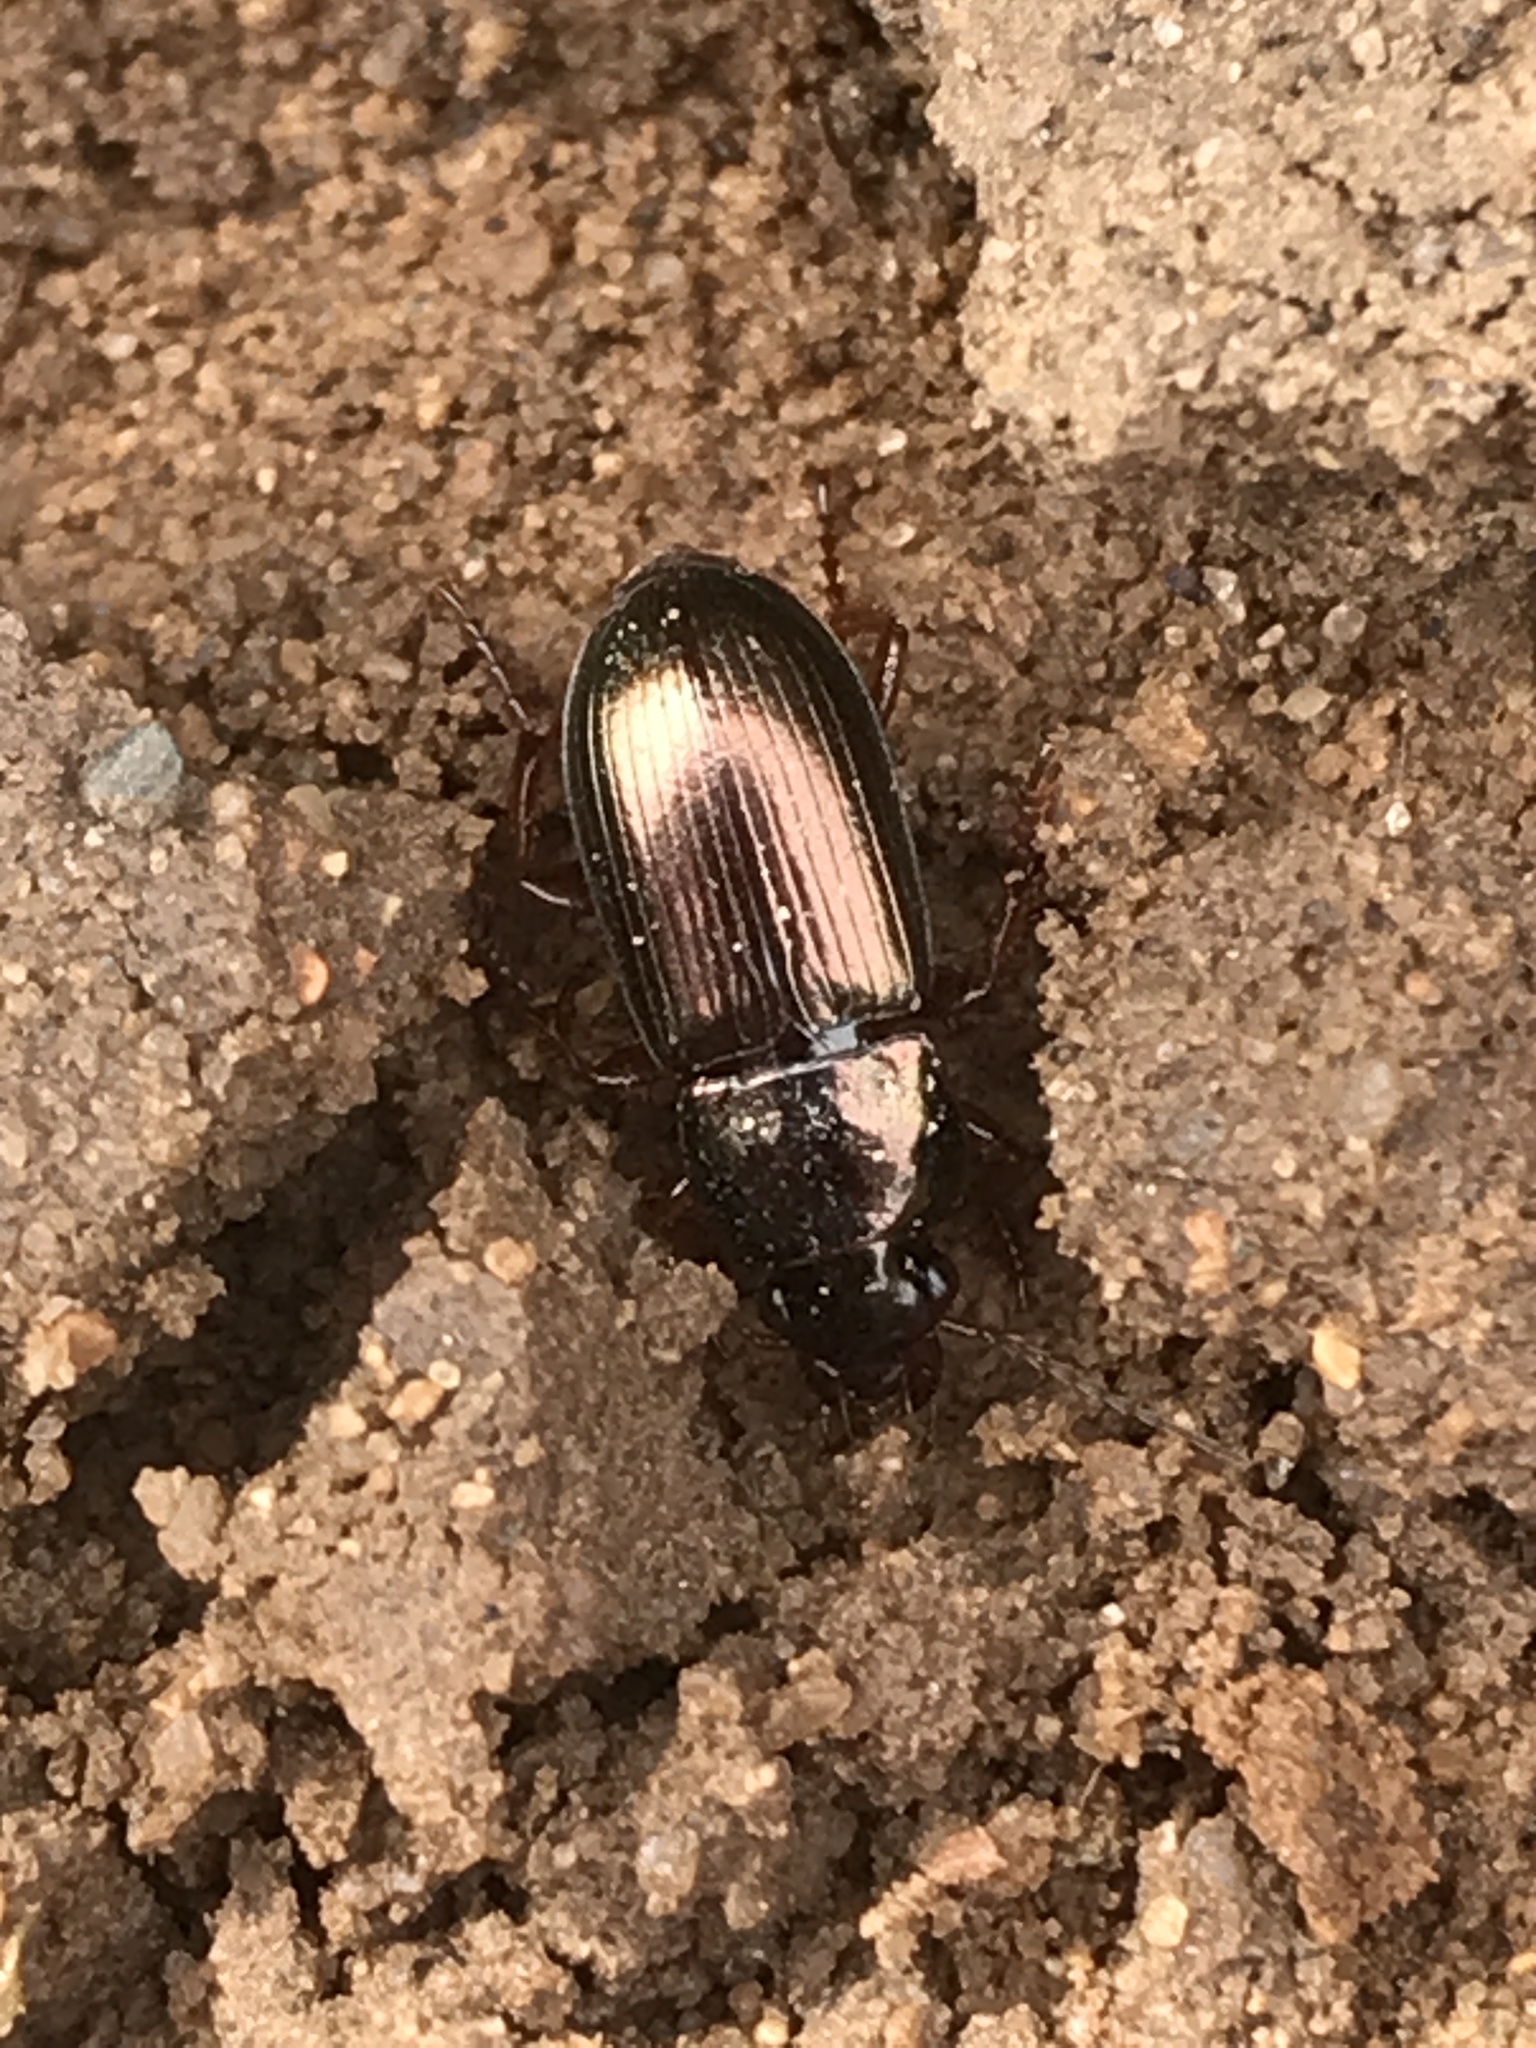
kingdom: Animalia
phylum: Arthropoda
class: Insecta
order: Coleoptera
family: Carabidae
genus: Harpalus
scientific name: Harpalus affinis
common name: Polychrome harp ground beetle
